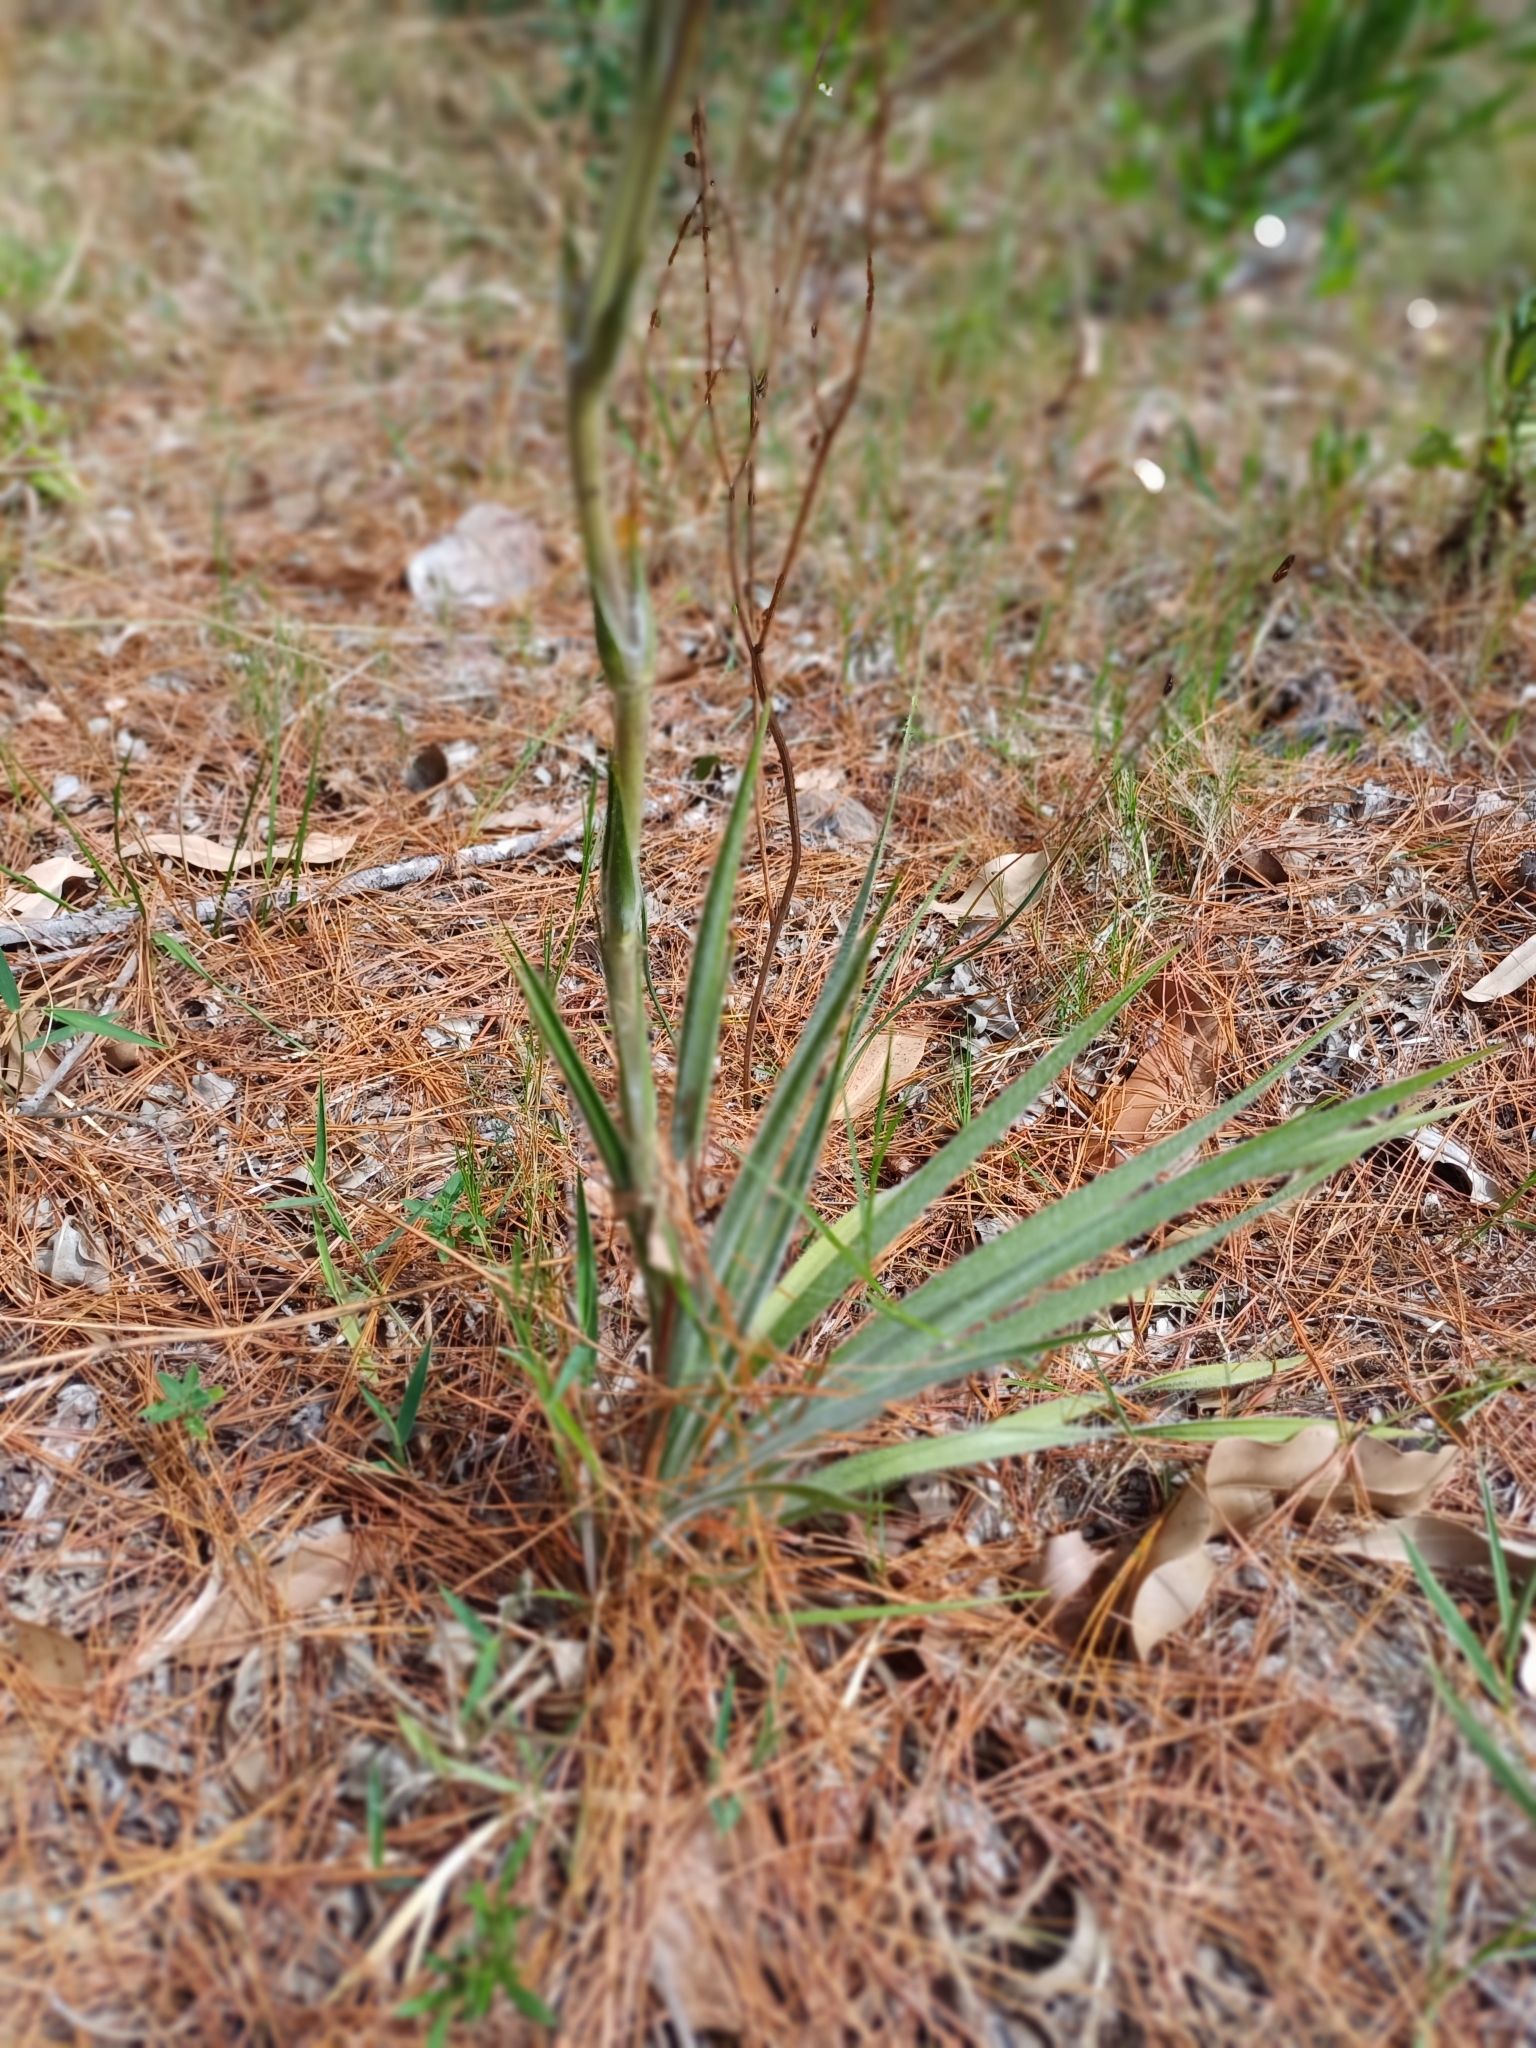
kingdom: Plantae
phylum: Tracheophyta
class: Magnoliopsida
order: Asterales
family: Asteraceae
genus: Schlechtendalia
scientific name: Schlechtendalia luzulifolia
